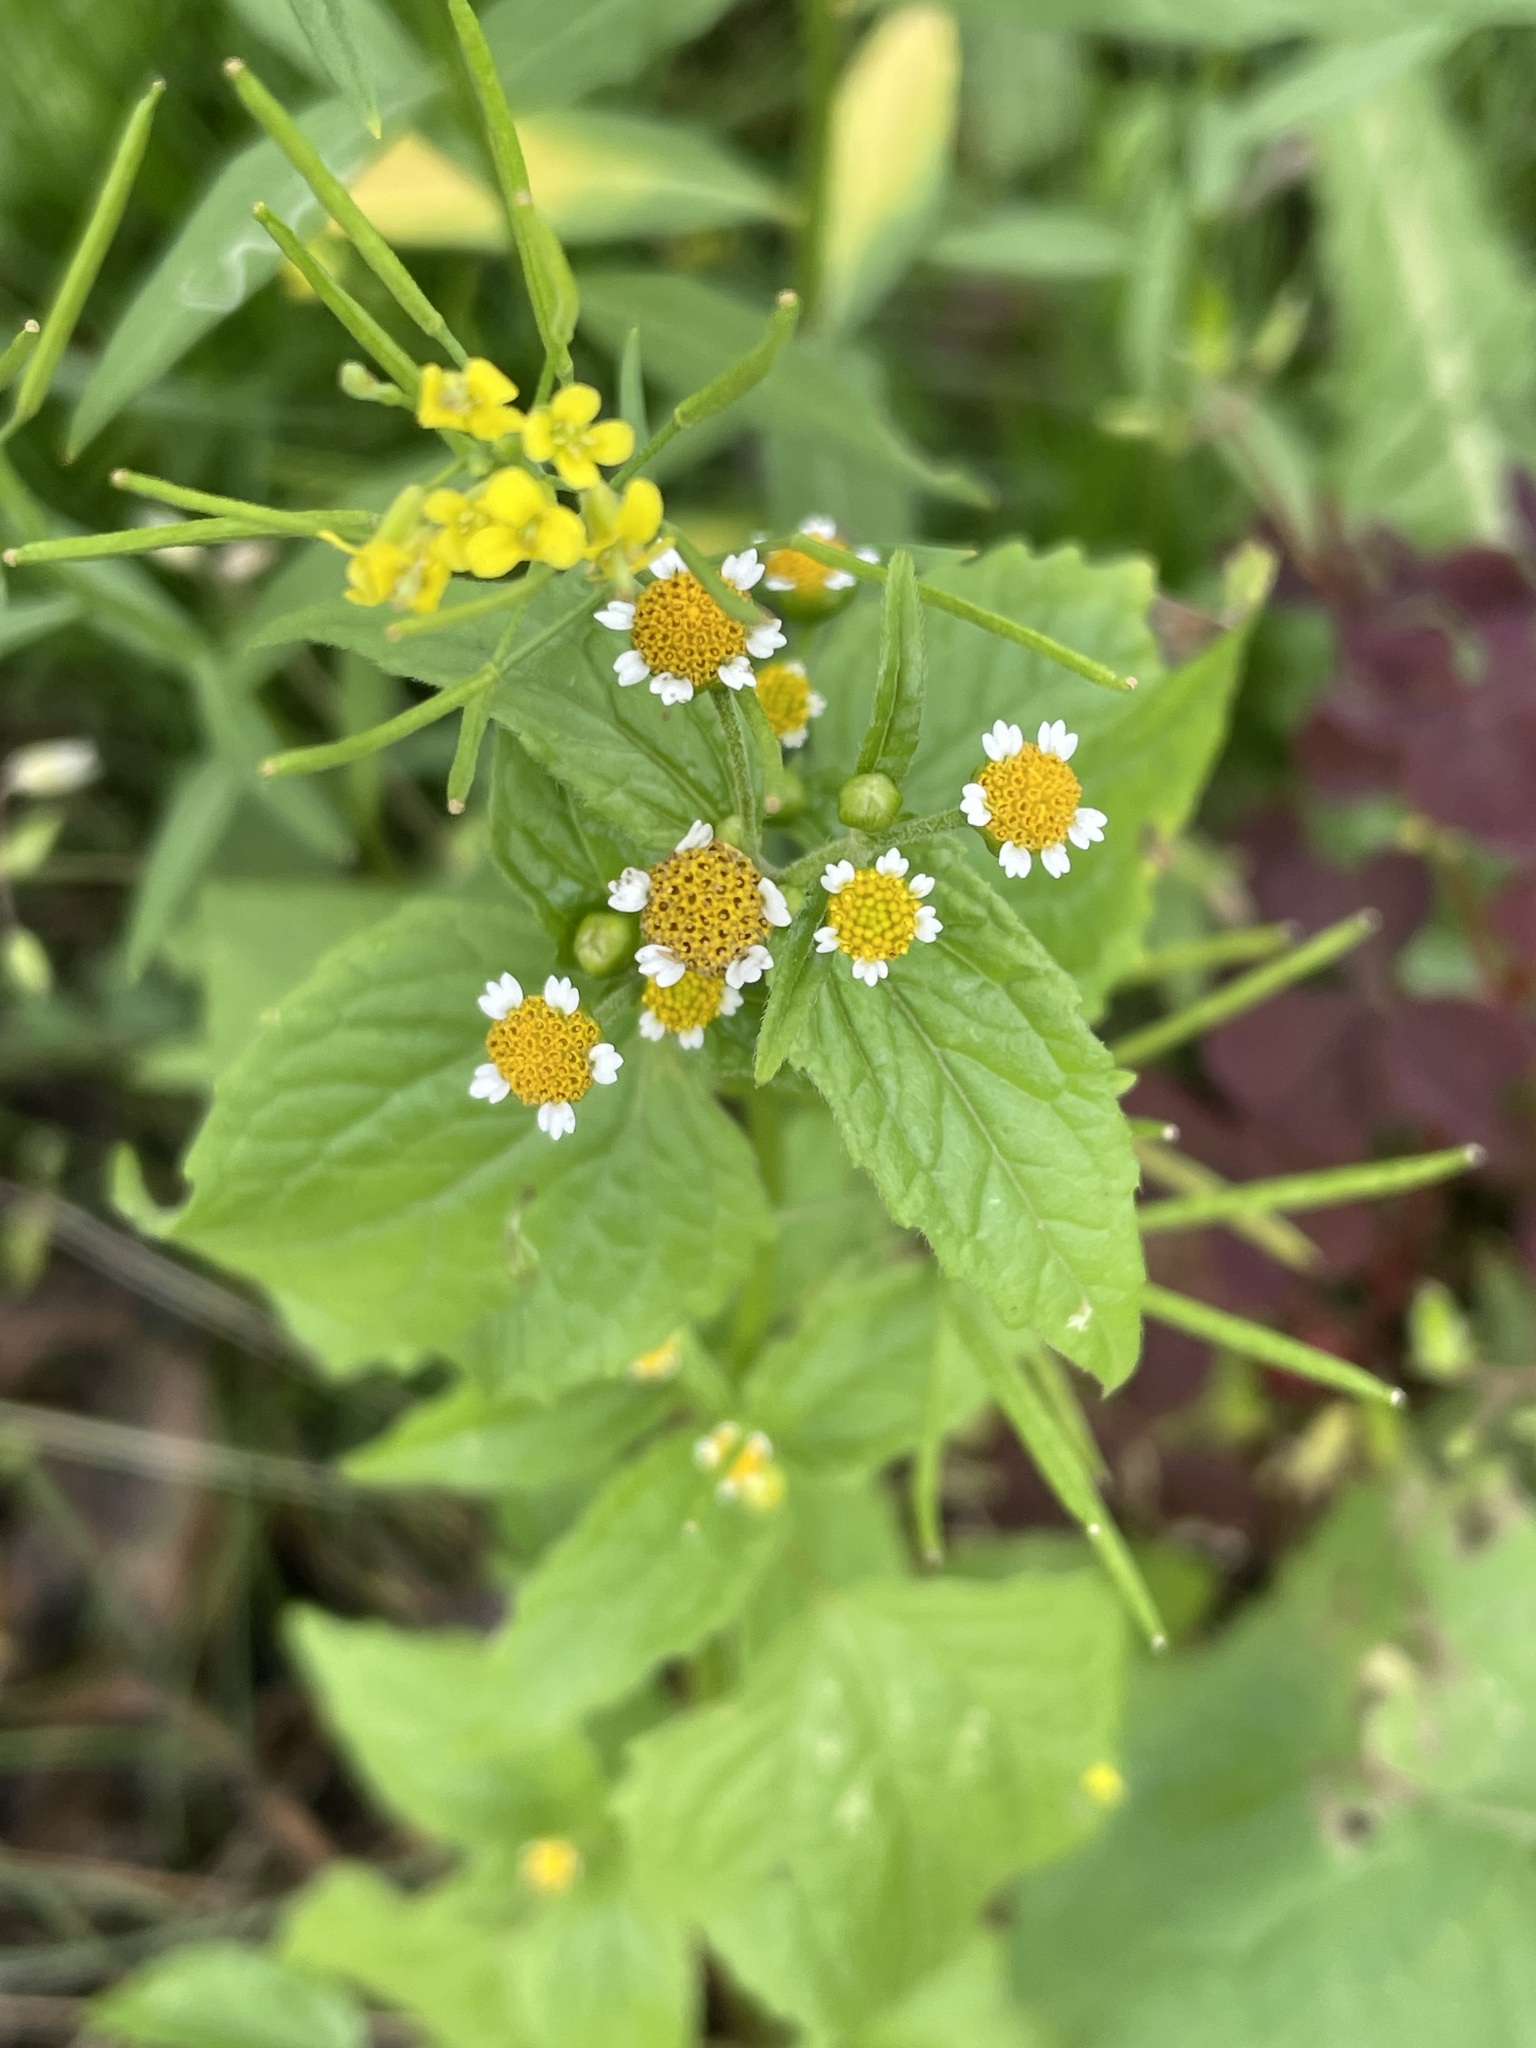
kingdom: Plantae
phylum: Tracheophyta
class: Magnoliopsida
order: Asterales
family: Asteraceae
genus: Galinsoga
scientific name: Galinsoga parviflora
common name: Gallant soldier
